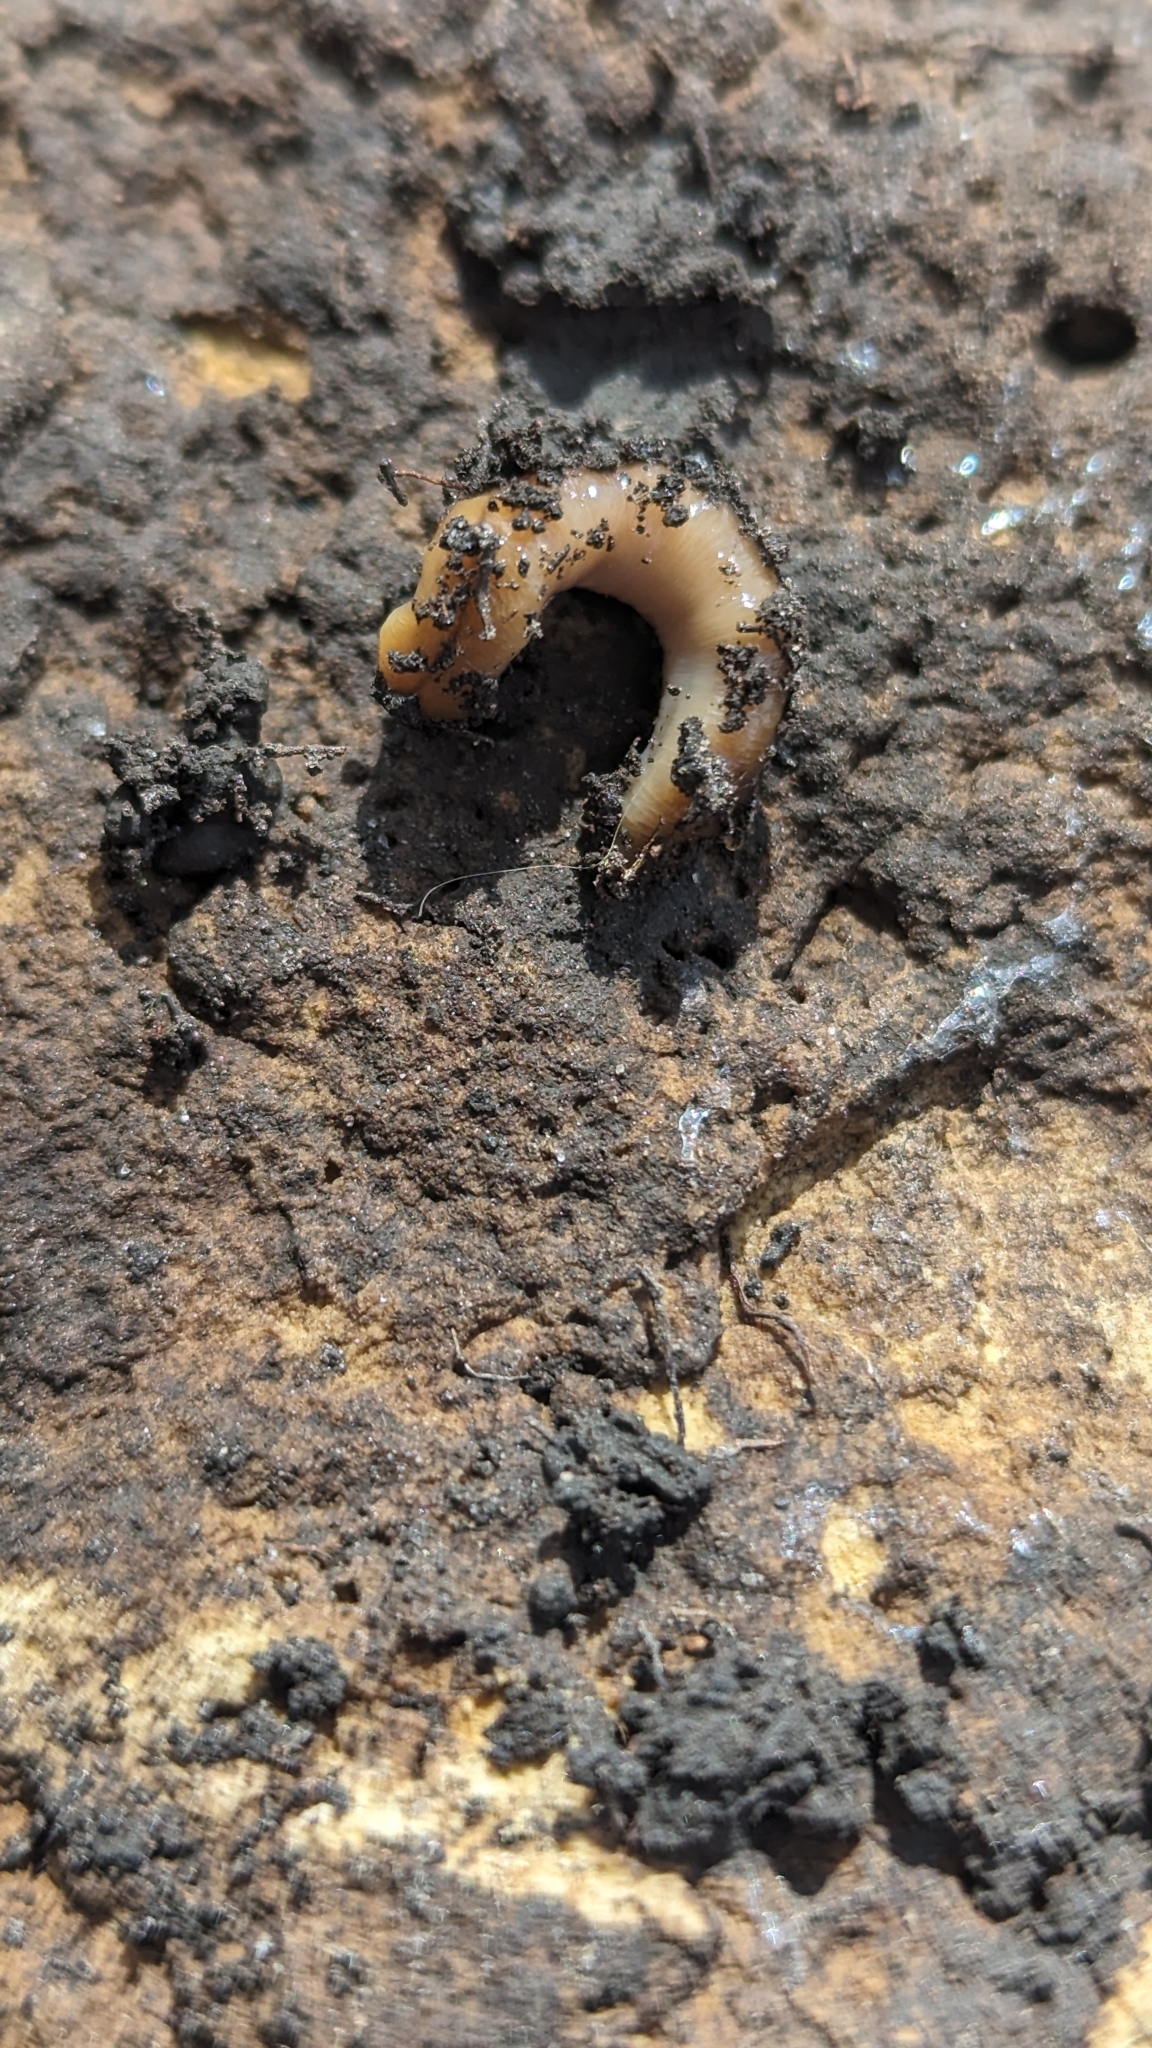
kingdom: Animalia
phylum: Platyhelminthes
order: Tricladida
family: Geoplanidae
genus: Bipalium
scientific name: Bipalium adventitium
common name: Land planarian
